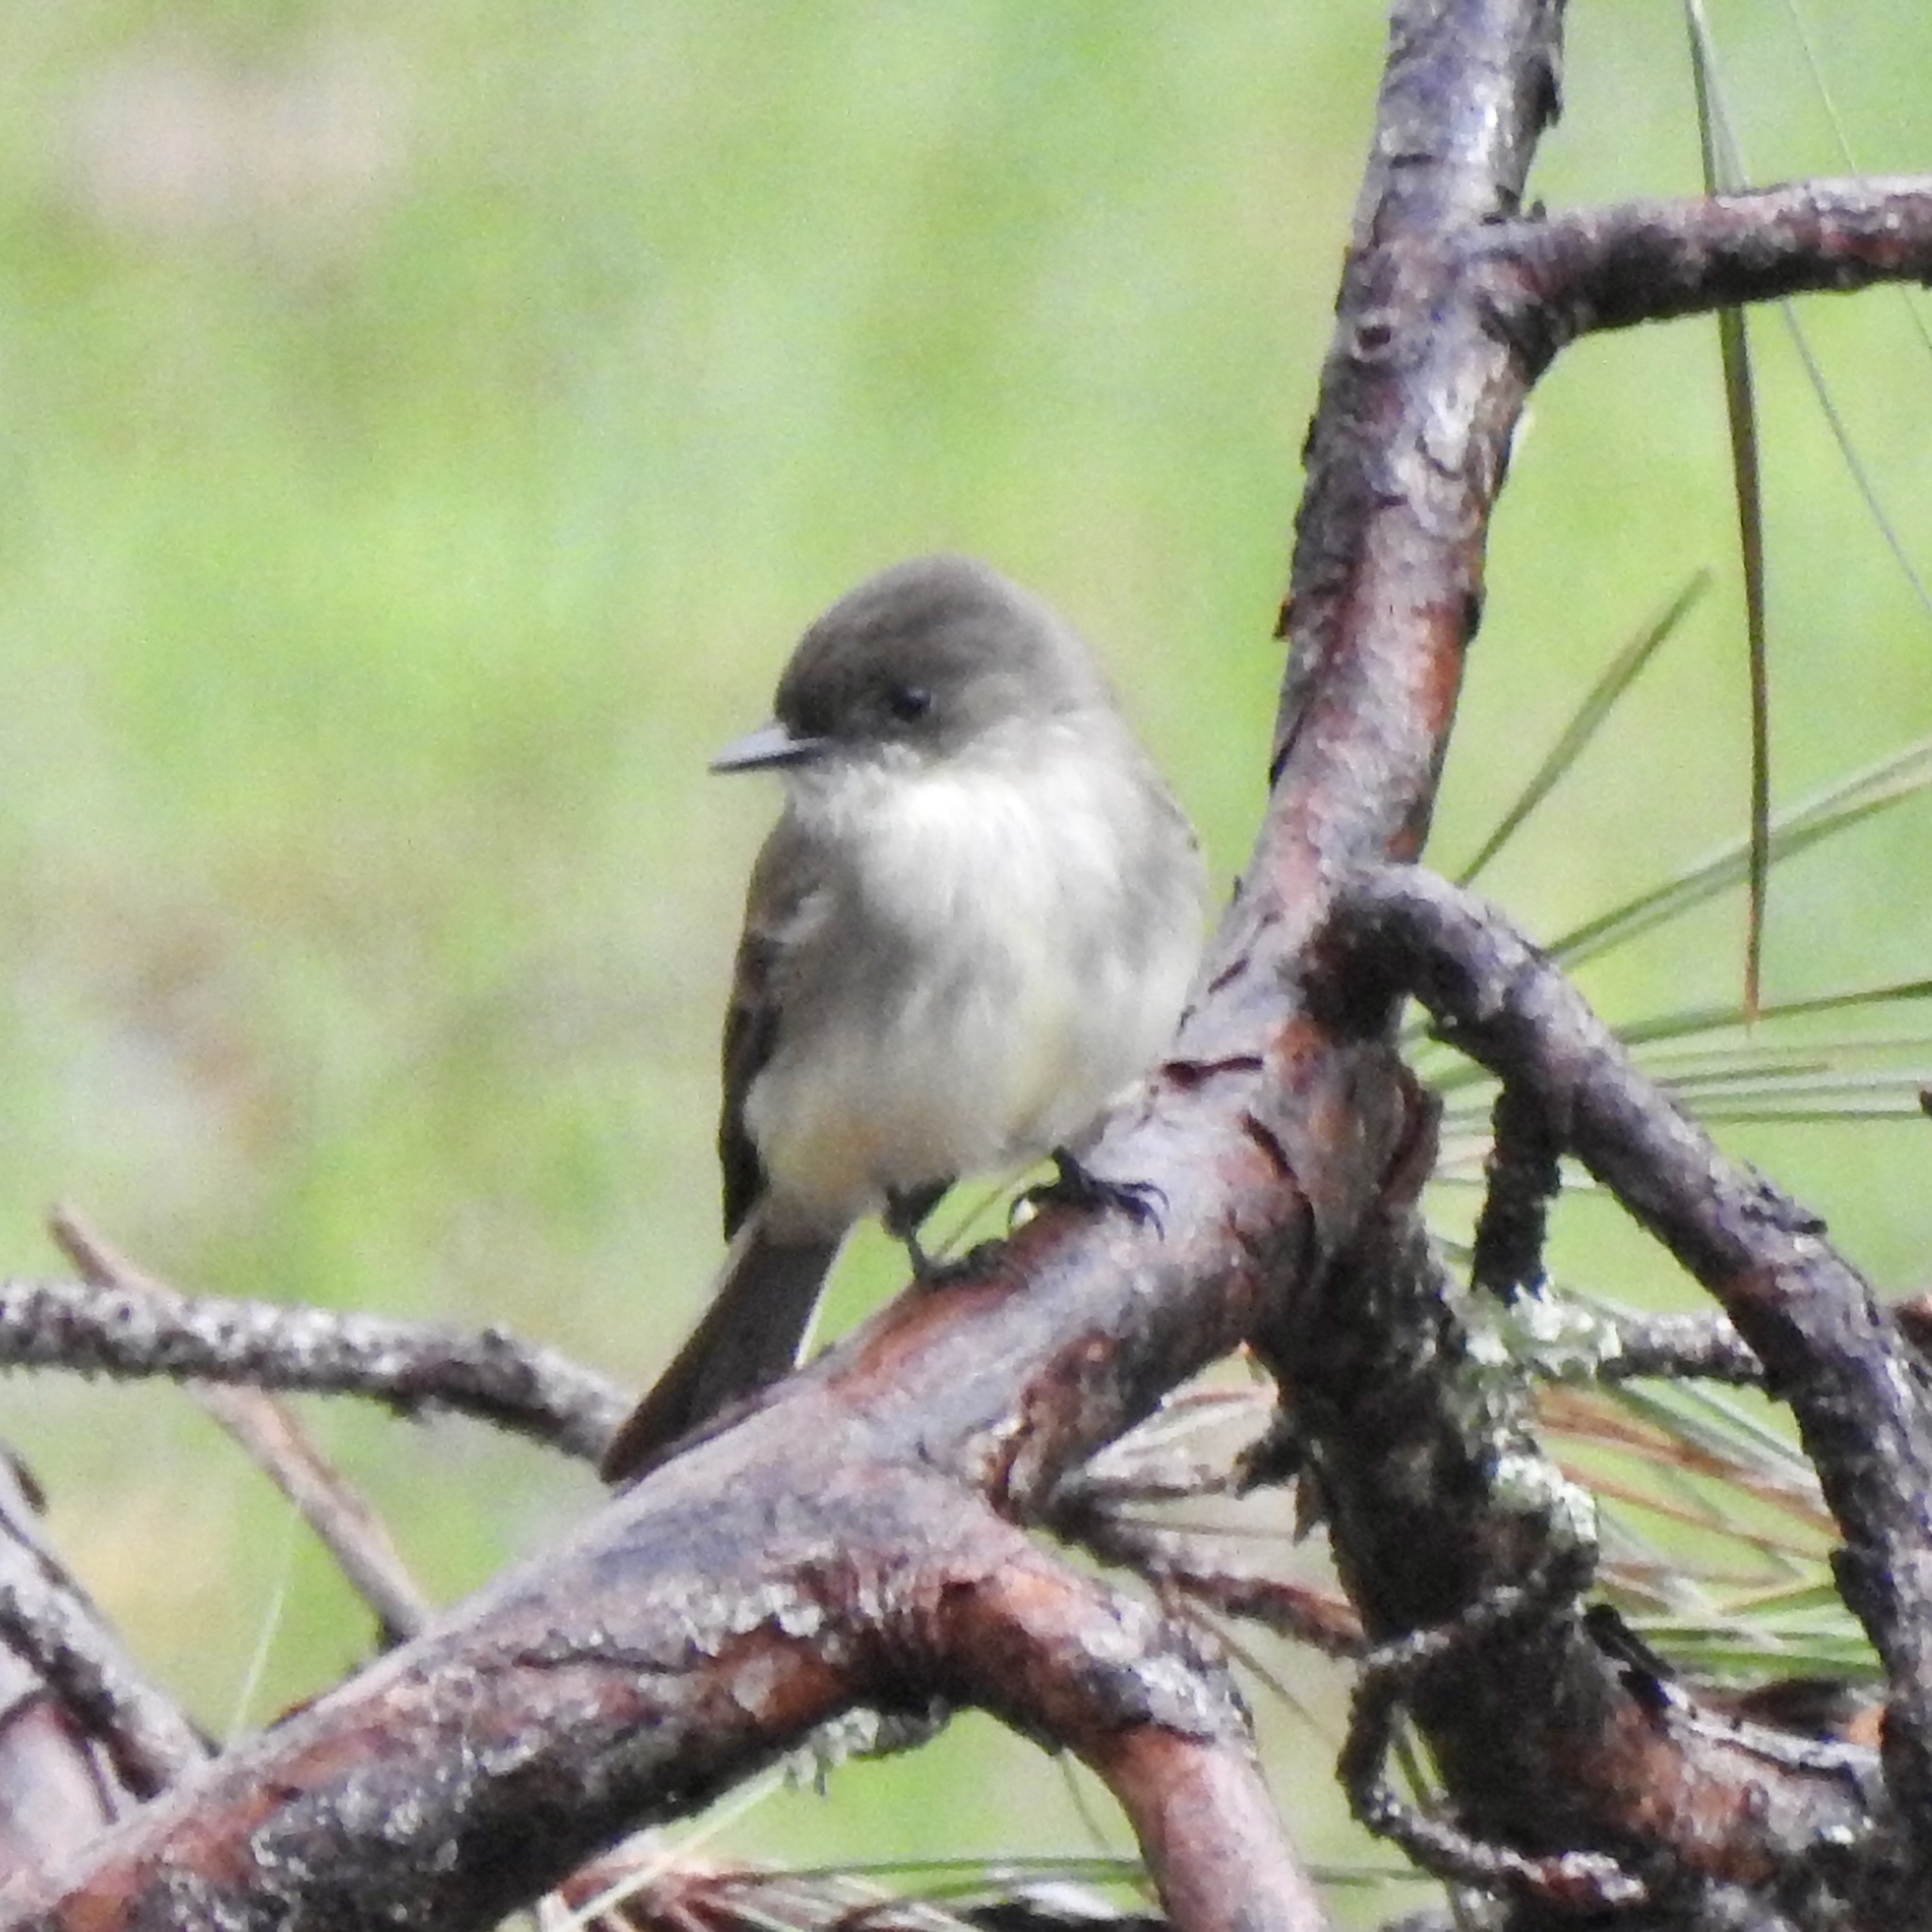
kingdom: Animalia
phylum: Chordata
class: Aves
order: Passeriformes
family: Tyrannidae
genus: Sayornis
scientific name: Sayornis phoebe
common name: Eastern phoebe
